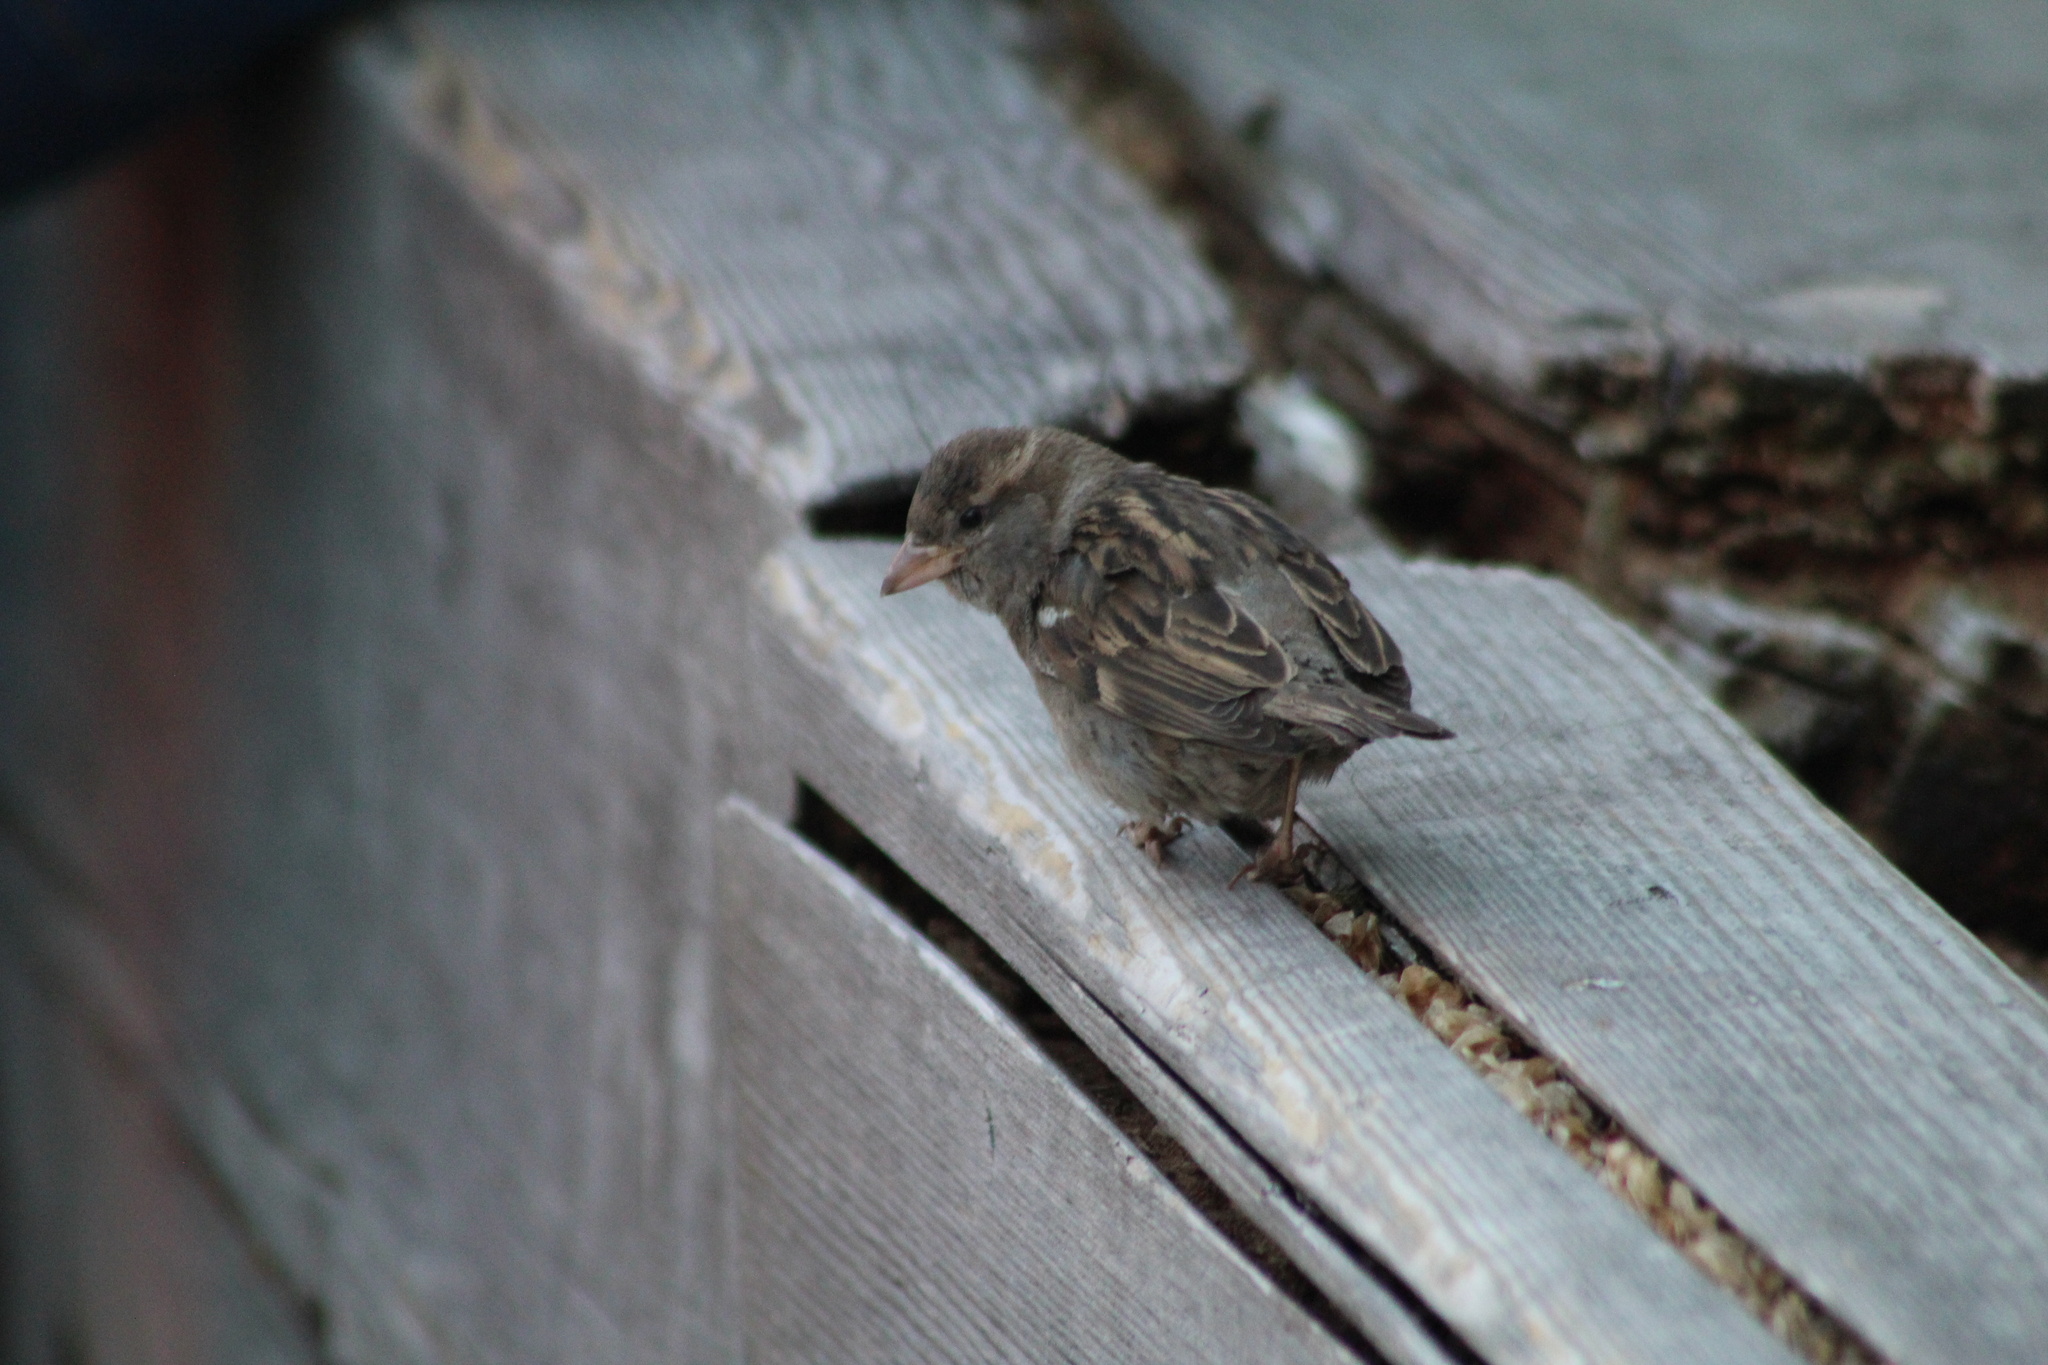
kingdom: Animalia
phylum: Chordata
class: Aves
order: Passeriformes
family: Passeridae
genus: Passer
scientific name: Passer domesticus
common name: House sparrow
